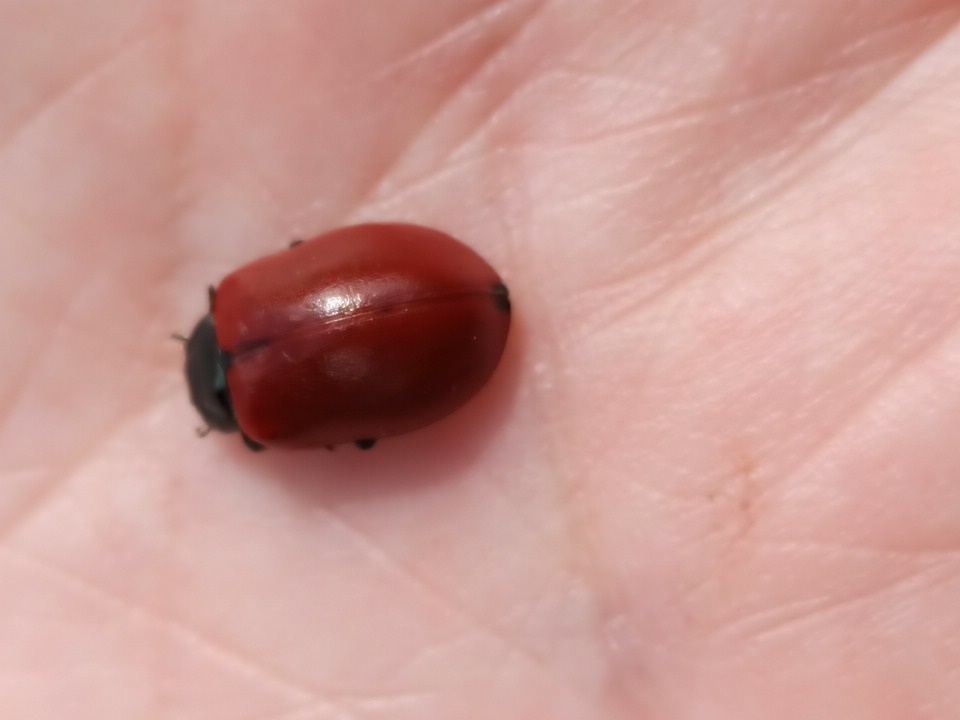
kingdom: Animalia
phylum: Arthropoda
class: Insecta
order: Coleoptera
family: Chrysomelidae
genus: Chrysomela
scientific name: Chrysomela populi
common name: Red poplar leaf beetle
